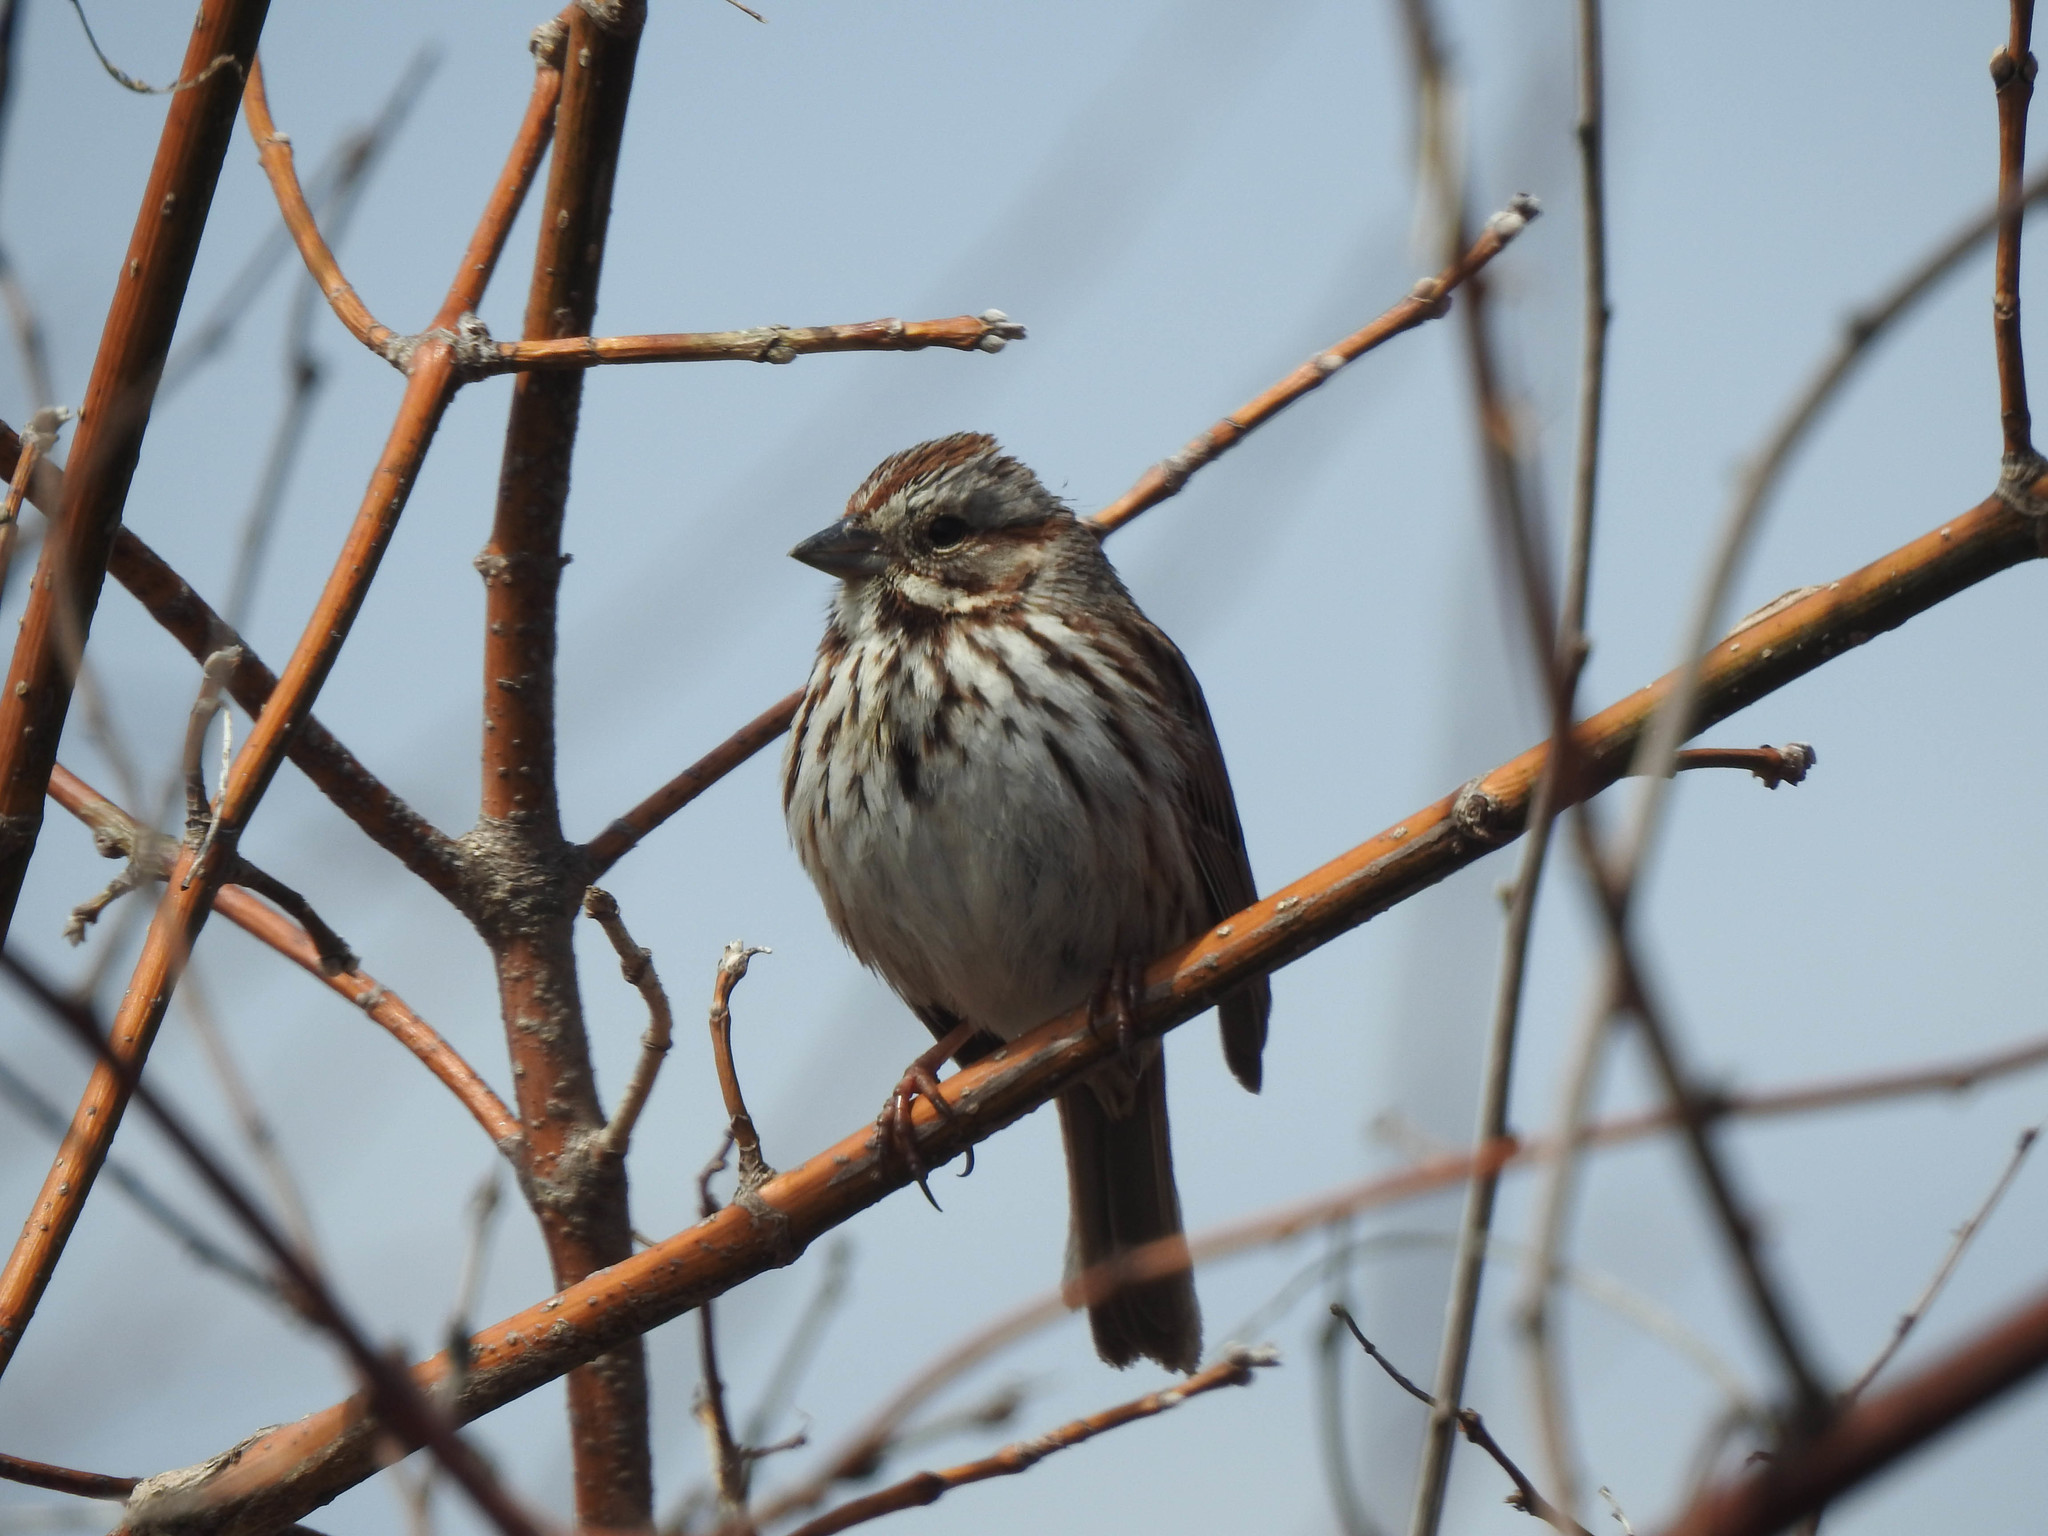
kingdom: Animalia
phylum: Chordata
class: Aves
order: Passeriformes
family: Passerellidae
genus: Melospiza
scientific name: Melospiza melodia
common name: Song sparrow
